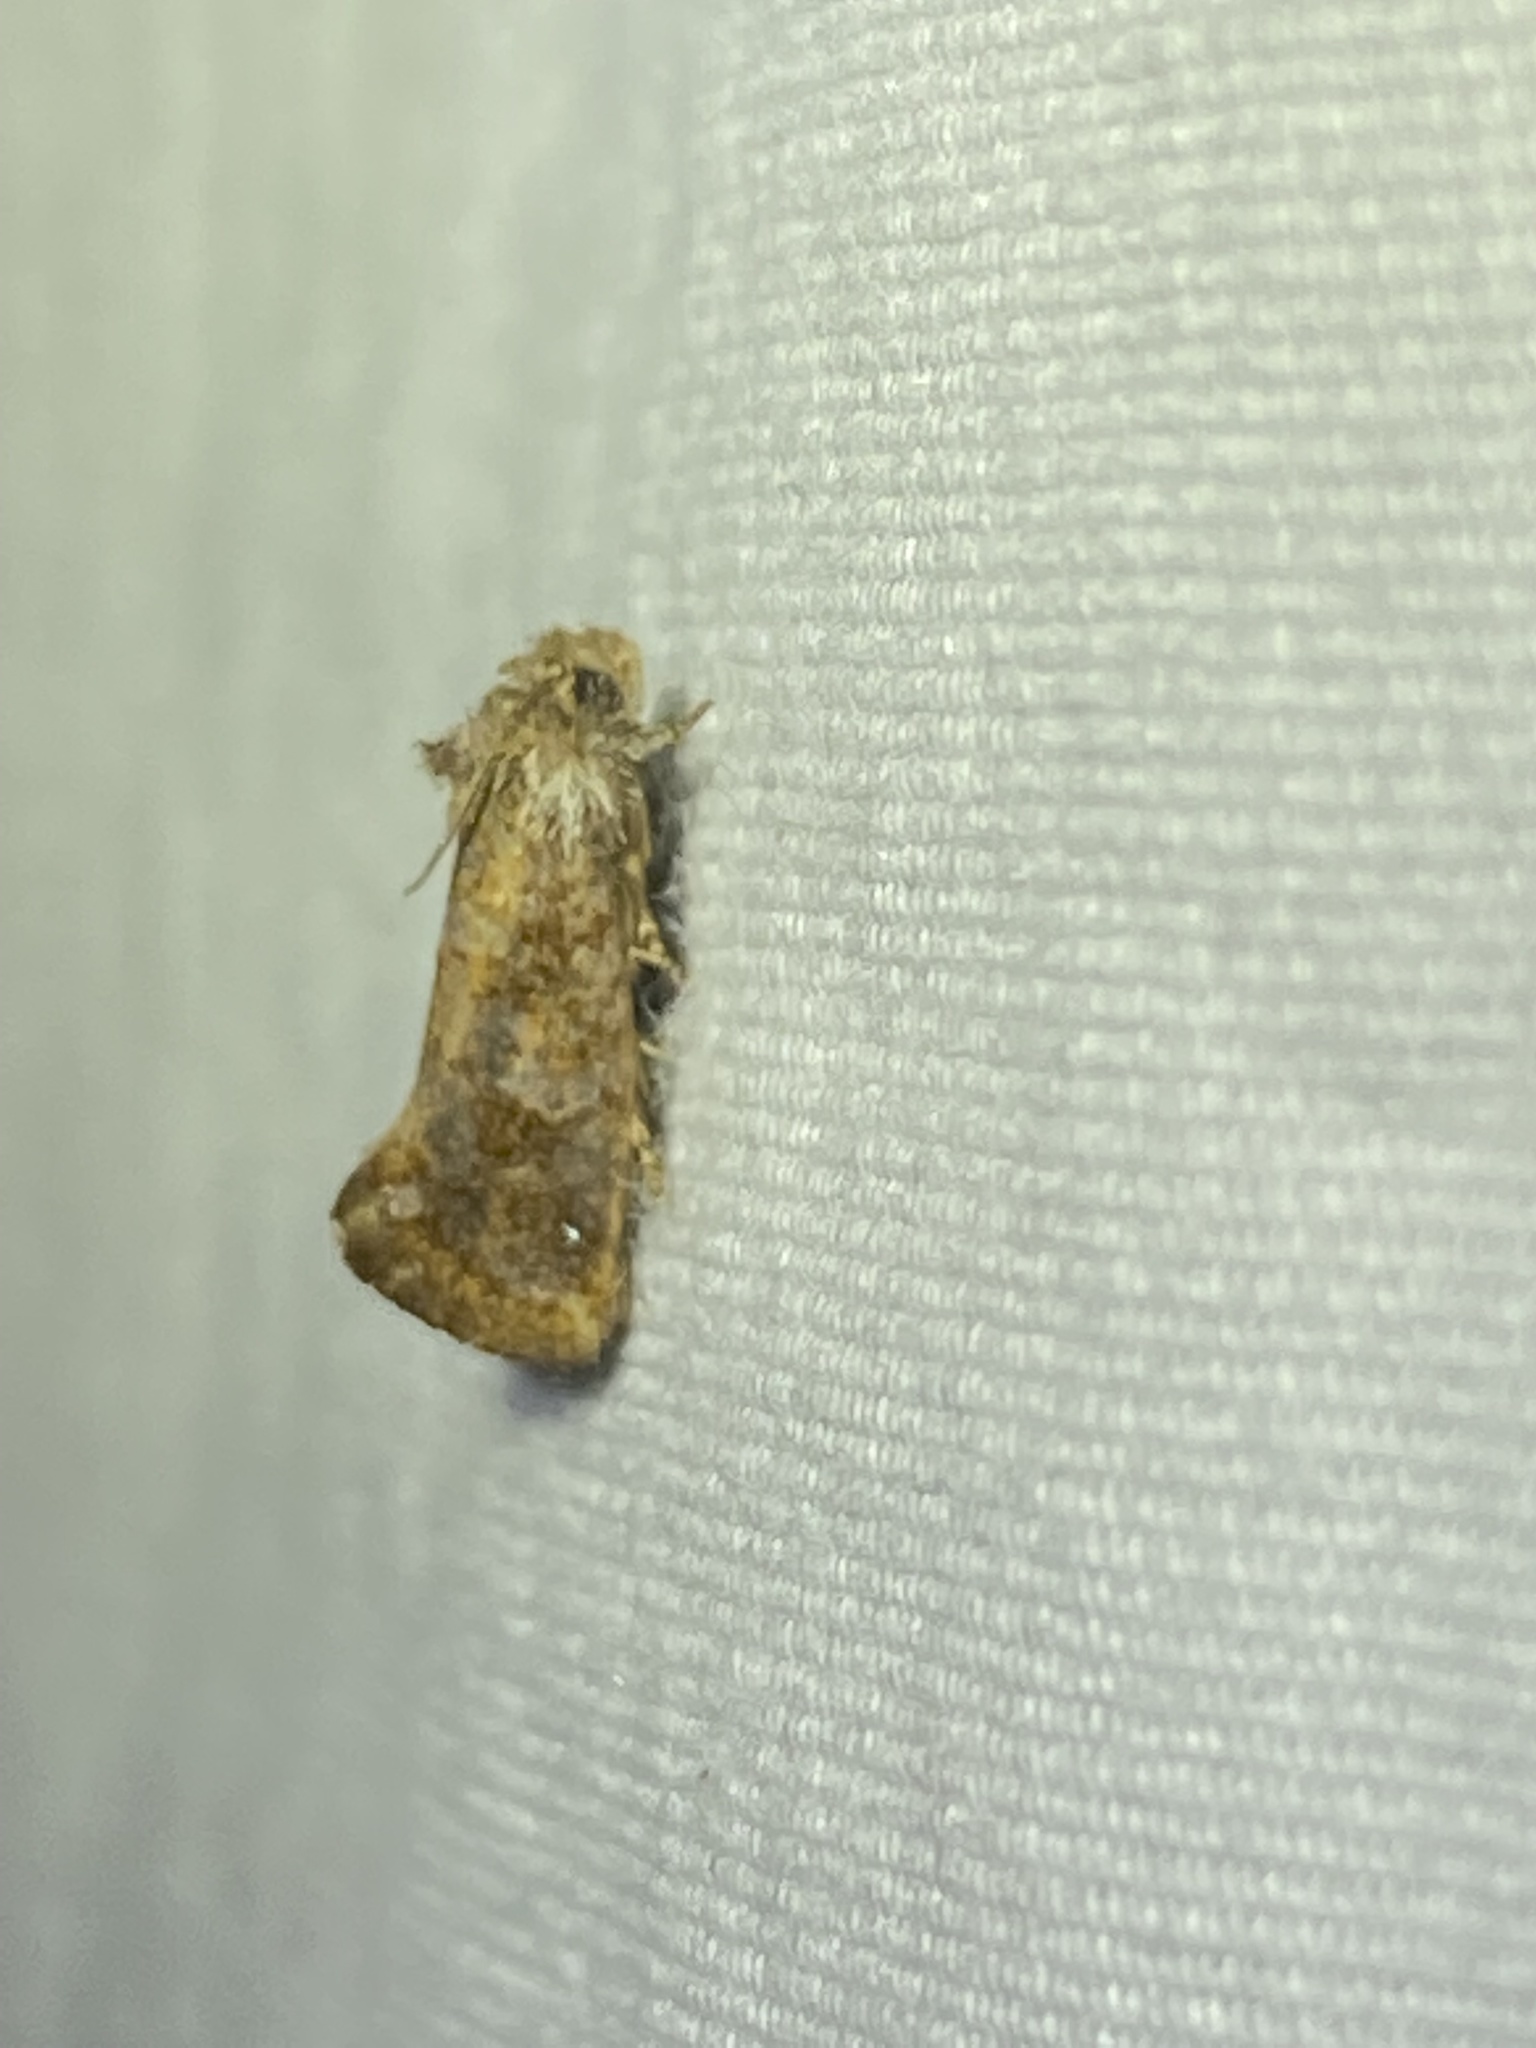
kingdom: Animalia
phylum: Arthropoda
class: Insecta
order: Lepidoptera
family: Tineidae
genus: Acrolophus
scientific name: Acrolophus panamae
